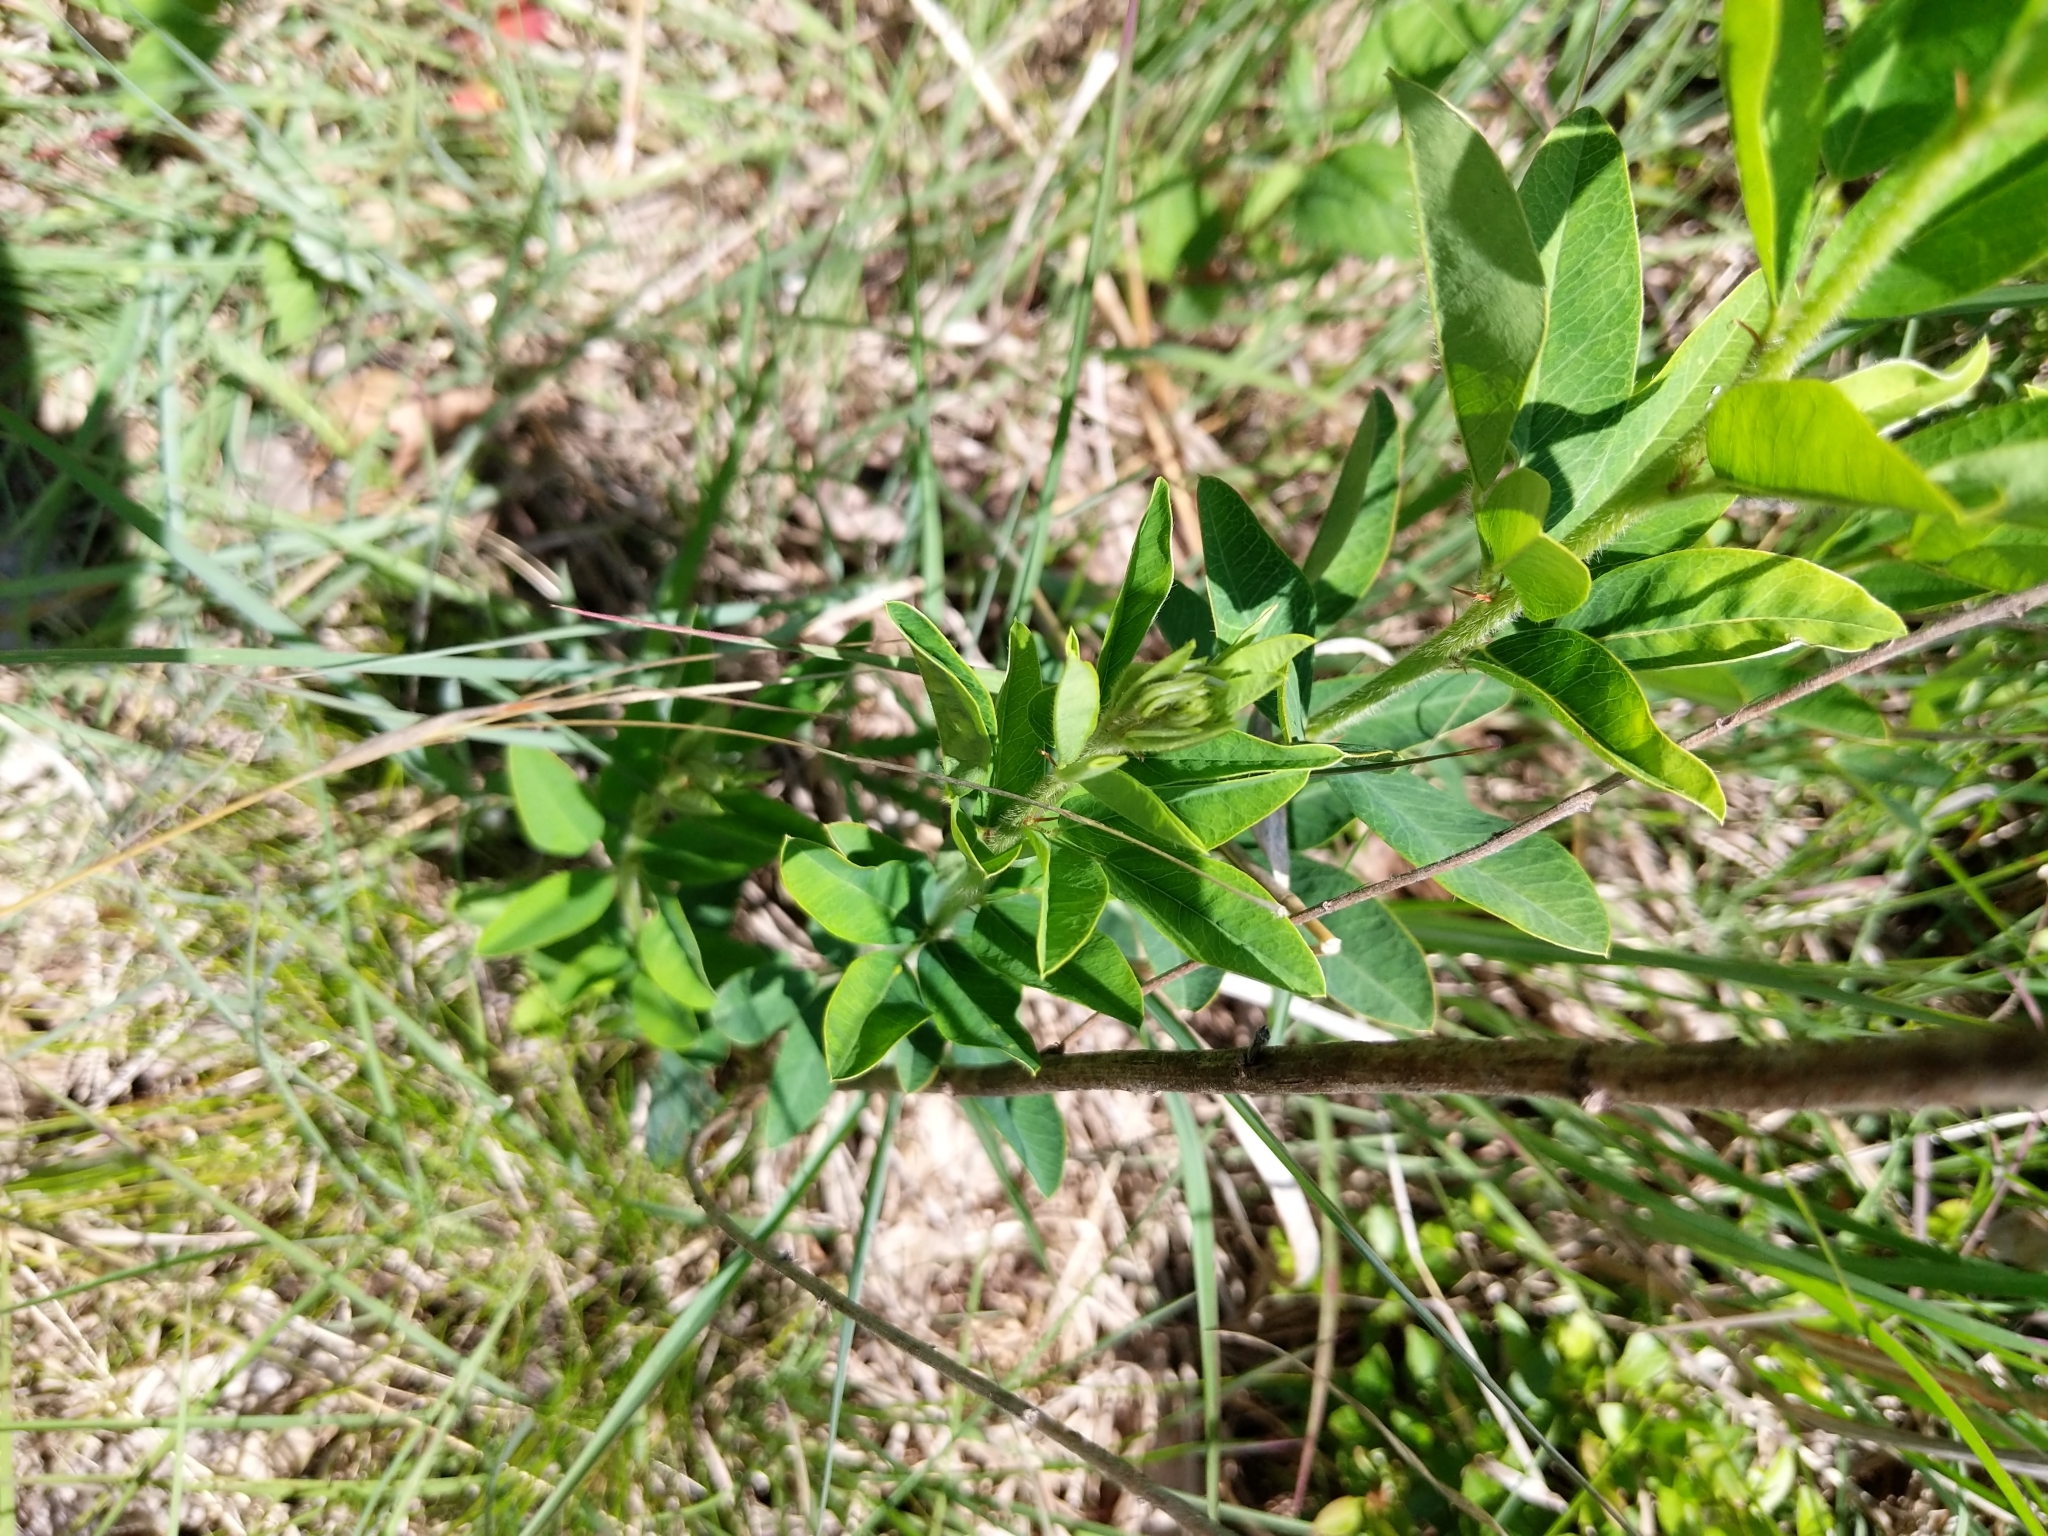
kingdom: Plantae
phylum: Tracheophyta
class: Magnoliopsida
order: Fabales
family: Fabaceae
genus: Lespedeza
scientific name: Lespedeza capitata
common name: Dusty clover
